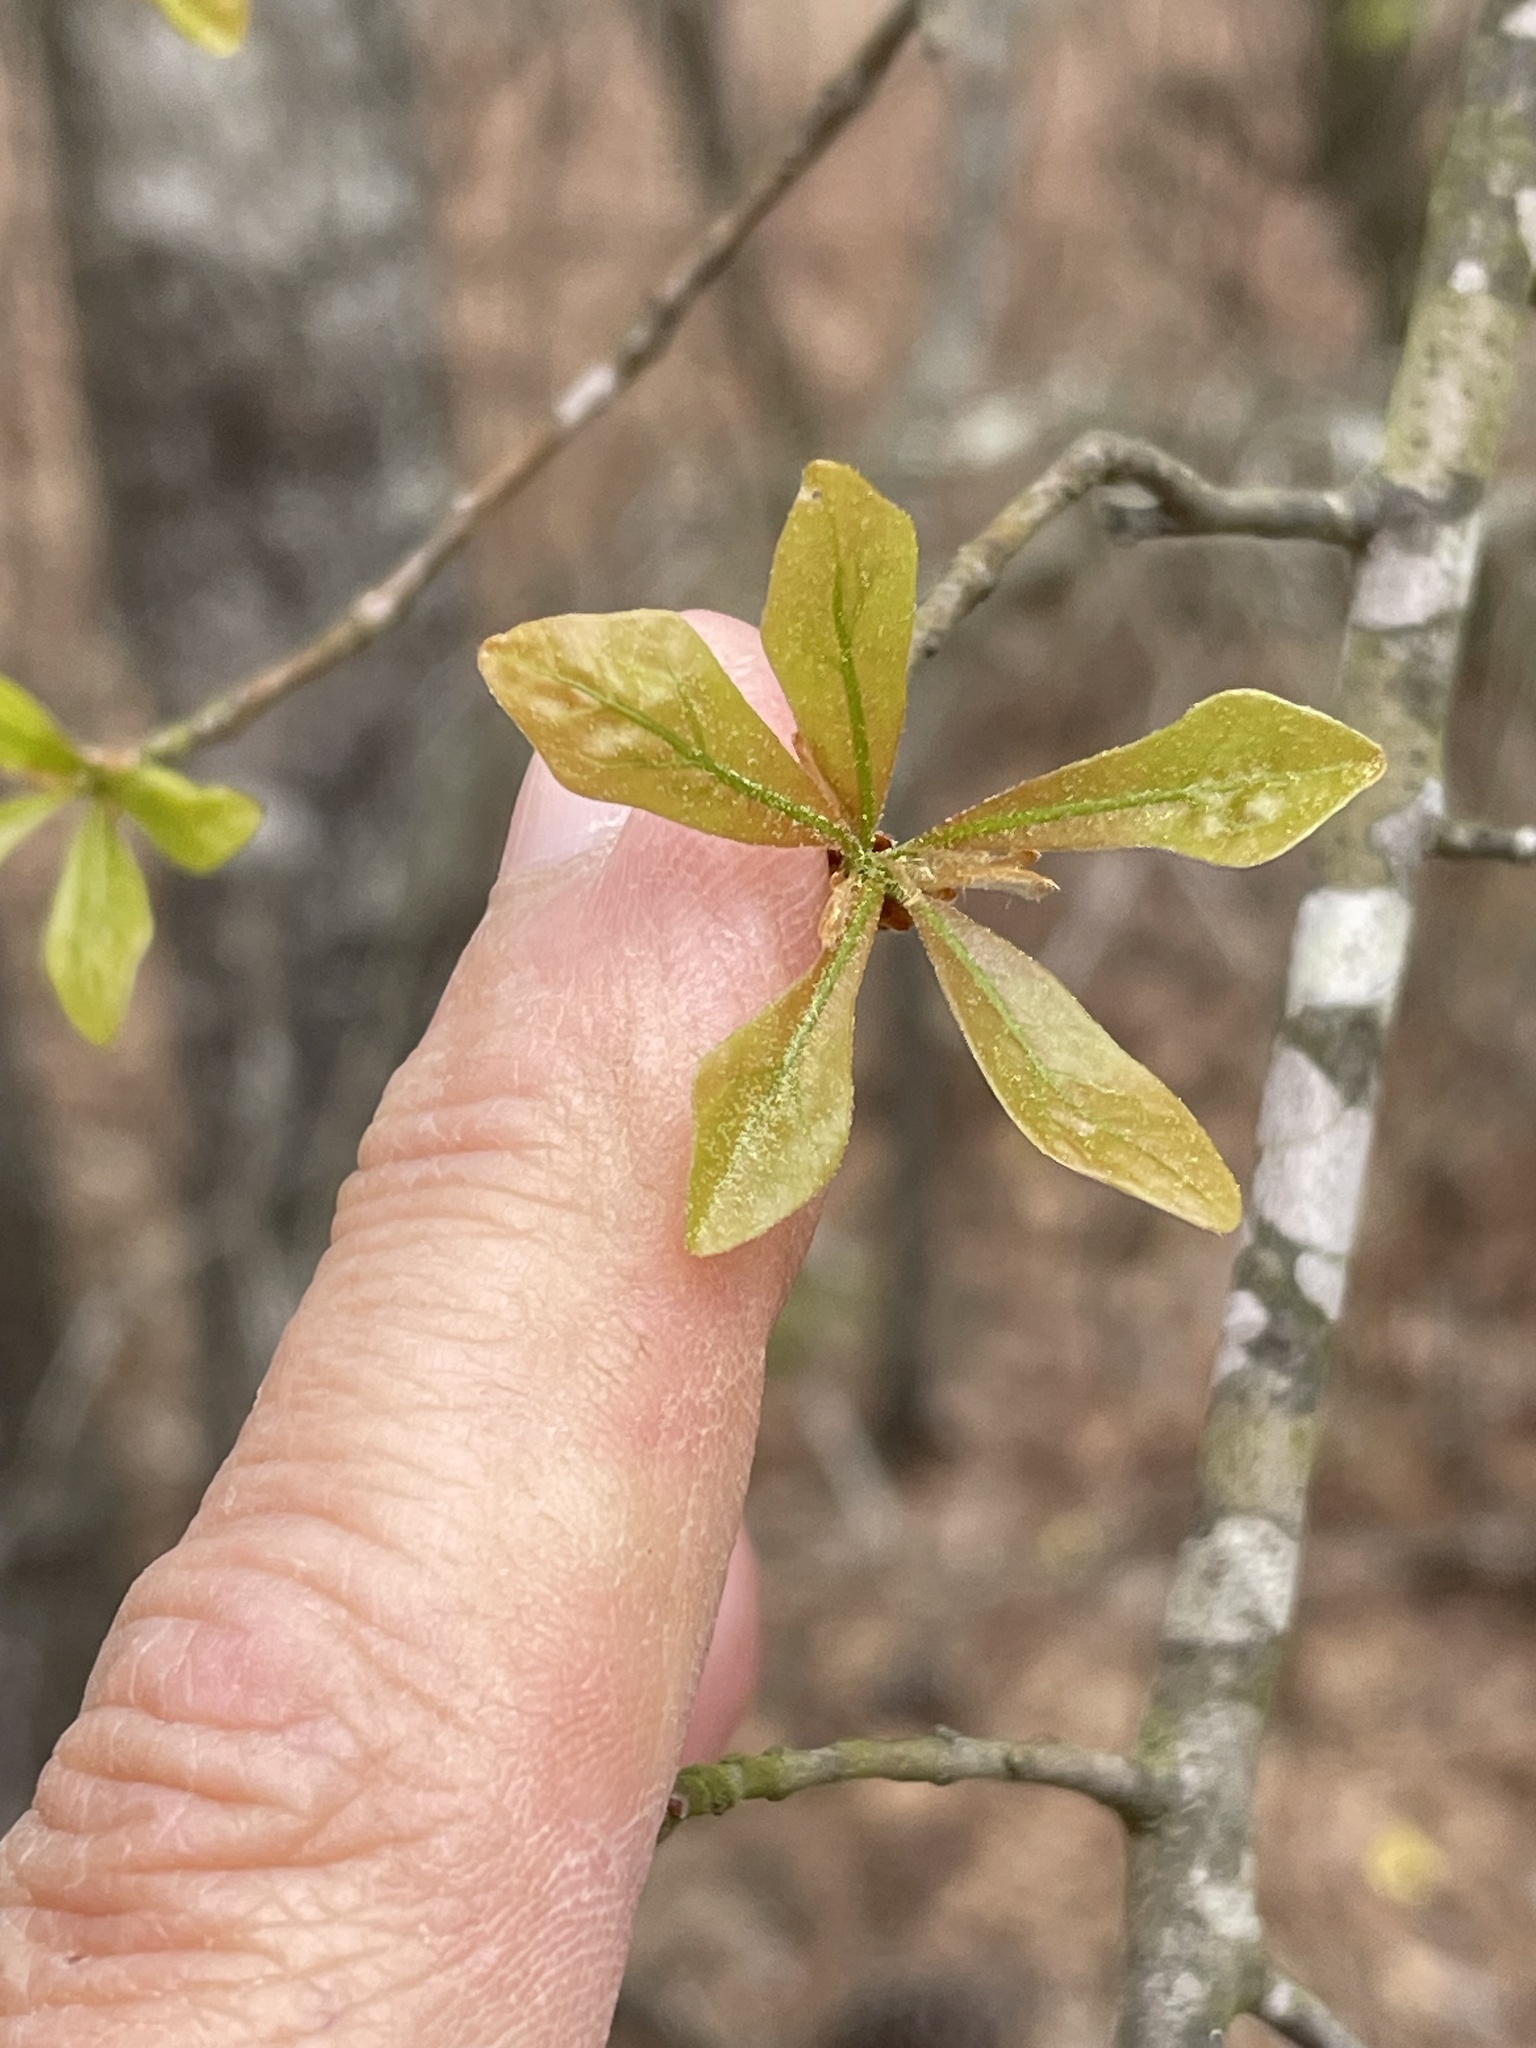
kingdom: Plantae
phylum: Tracheophyta
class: Magnoliopsida
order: Fagales
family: Fagaceae
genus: Quercus
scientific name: Quercus nigra
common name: Water oak
